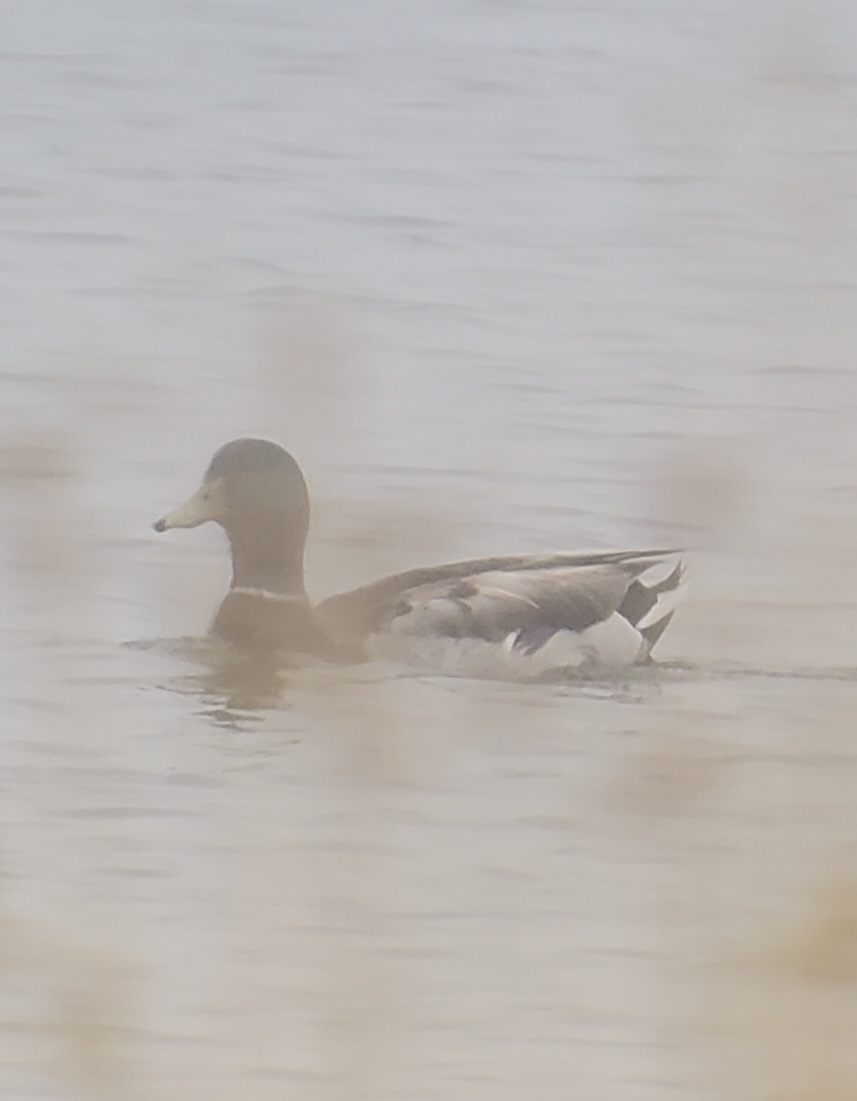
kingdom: Animalia
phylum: Chordata
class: Aves
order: Anseriformes
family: Anatidae
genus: Anas
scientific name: Anas platyrhynchos
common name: Mallard
